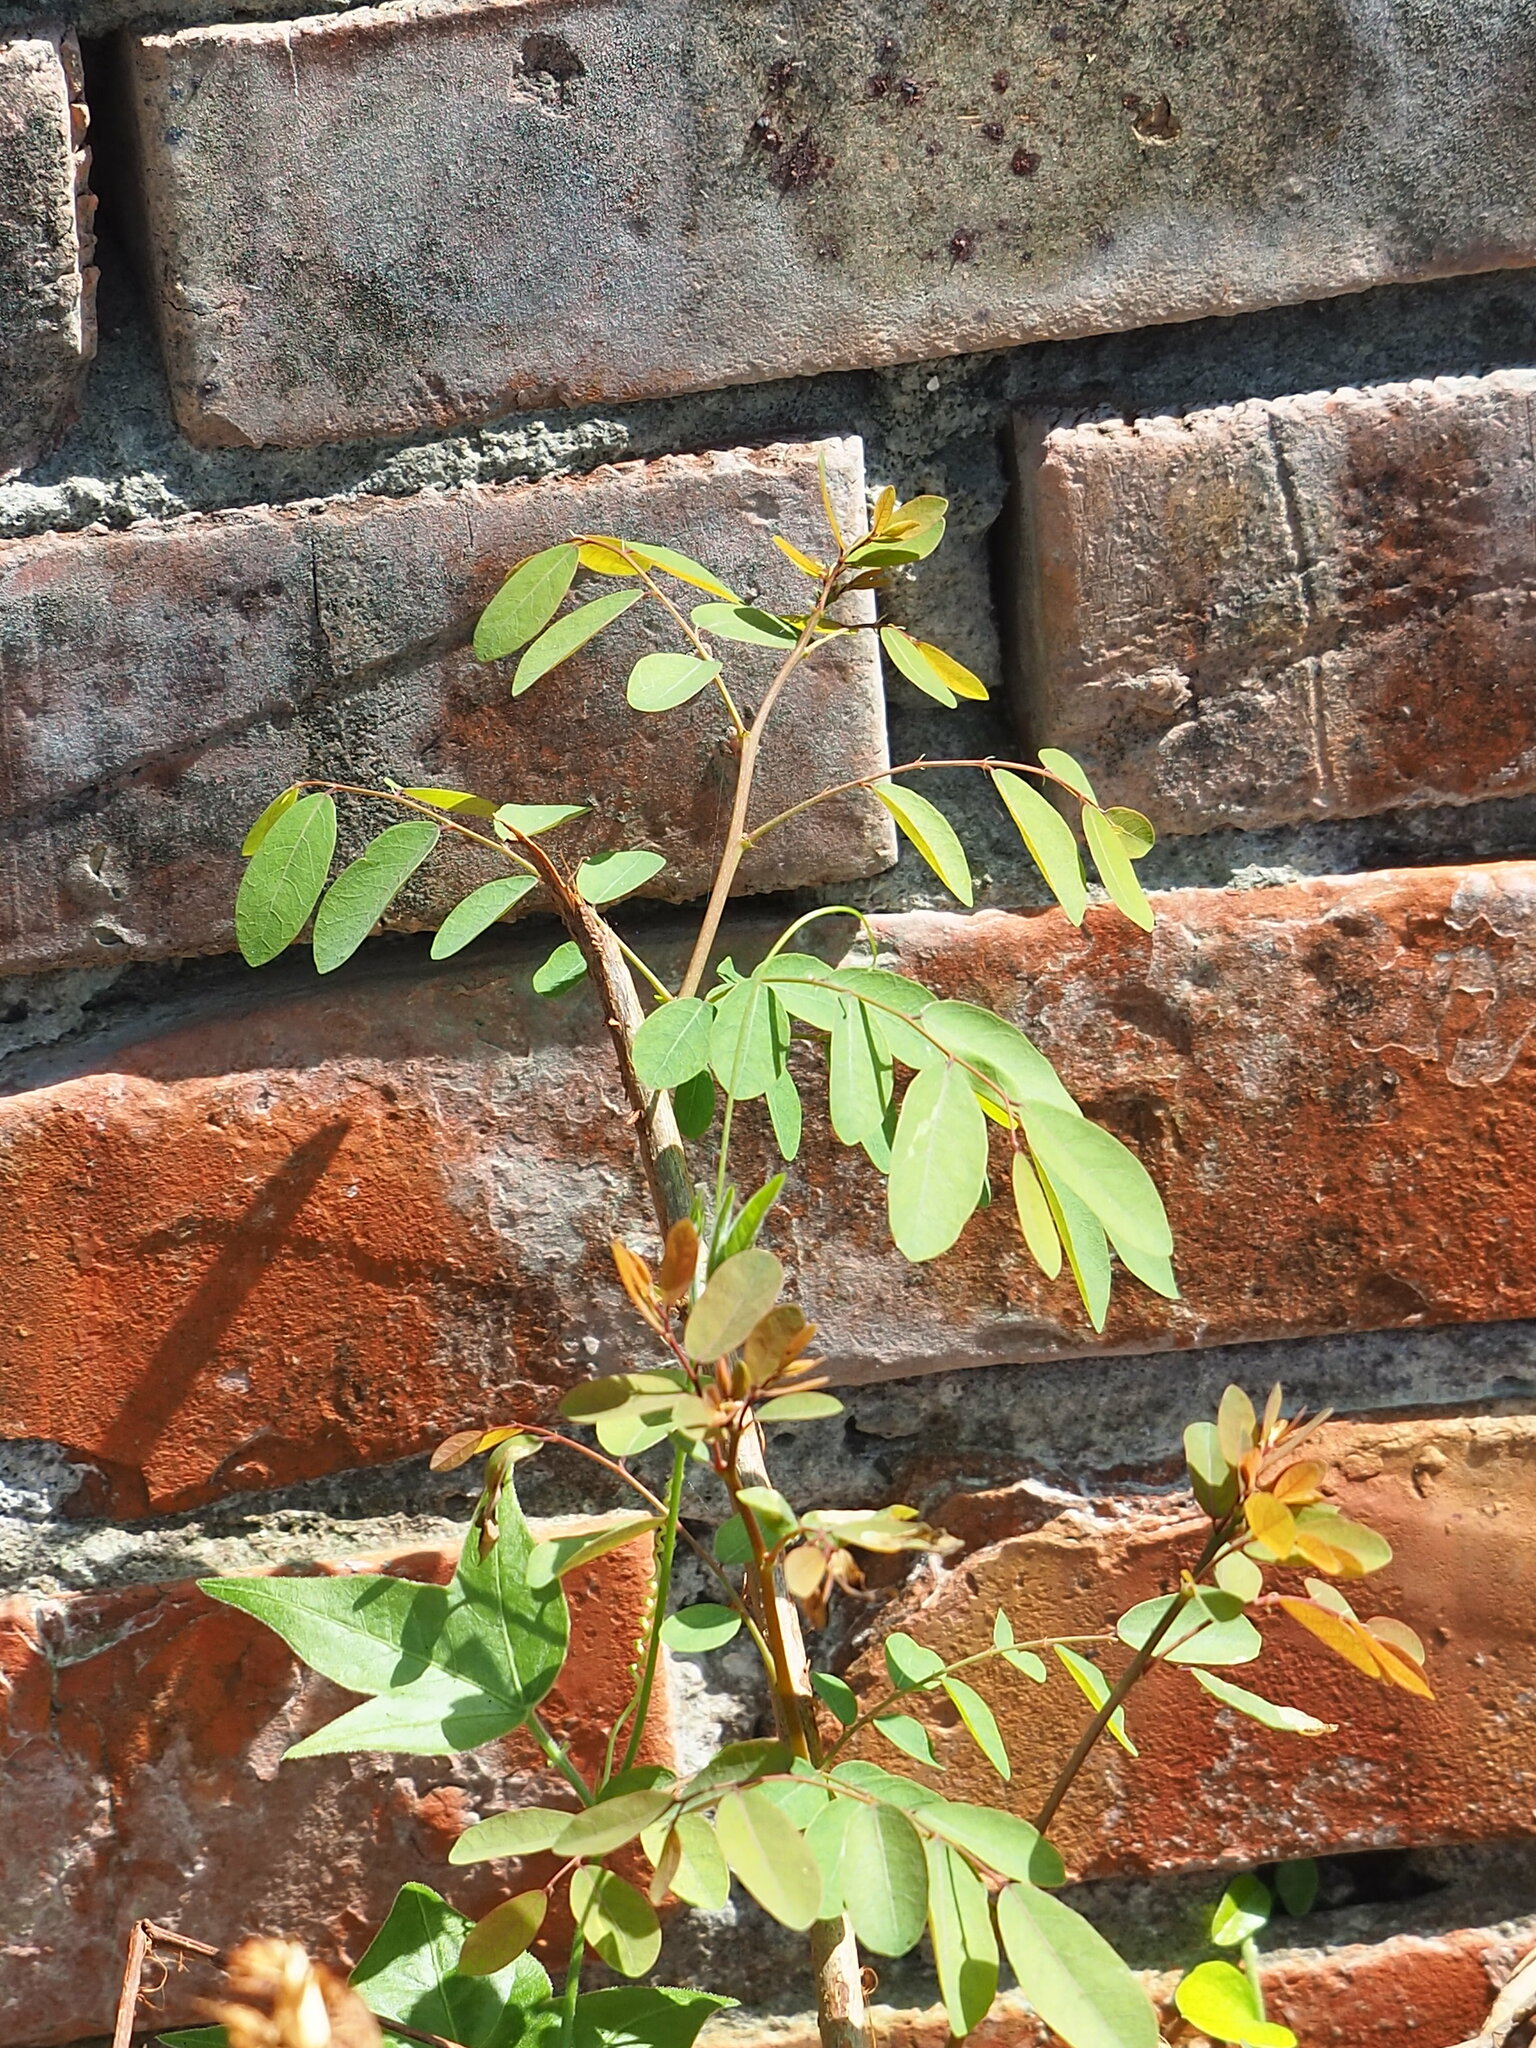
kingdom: Plantae
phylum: Tracheophyta
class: Magnoliopsida
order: Malpighiales
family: Phyllanthaceae
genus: Phyllanthus
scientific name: Phyllanthus reticulatus
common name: Potato bush
